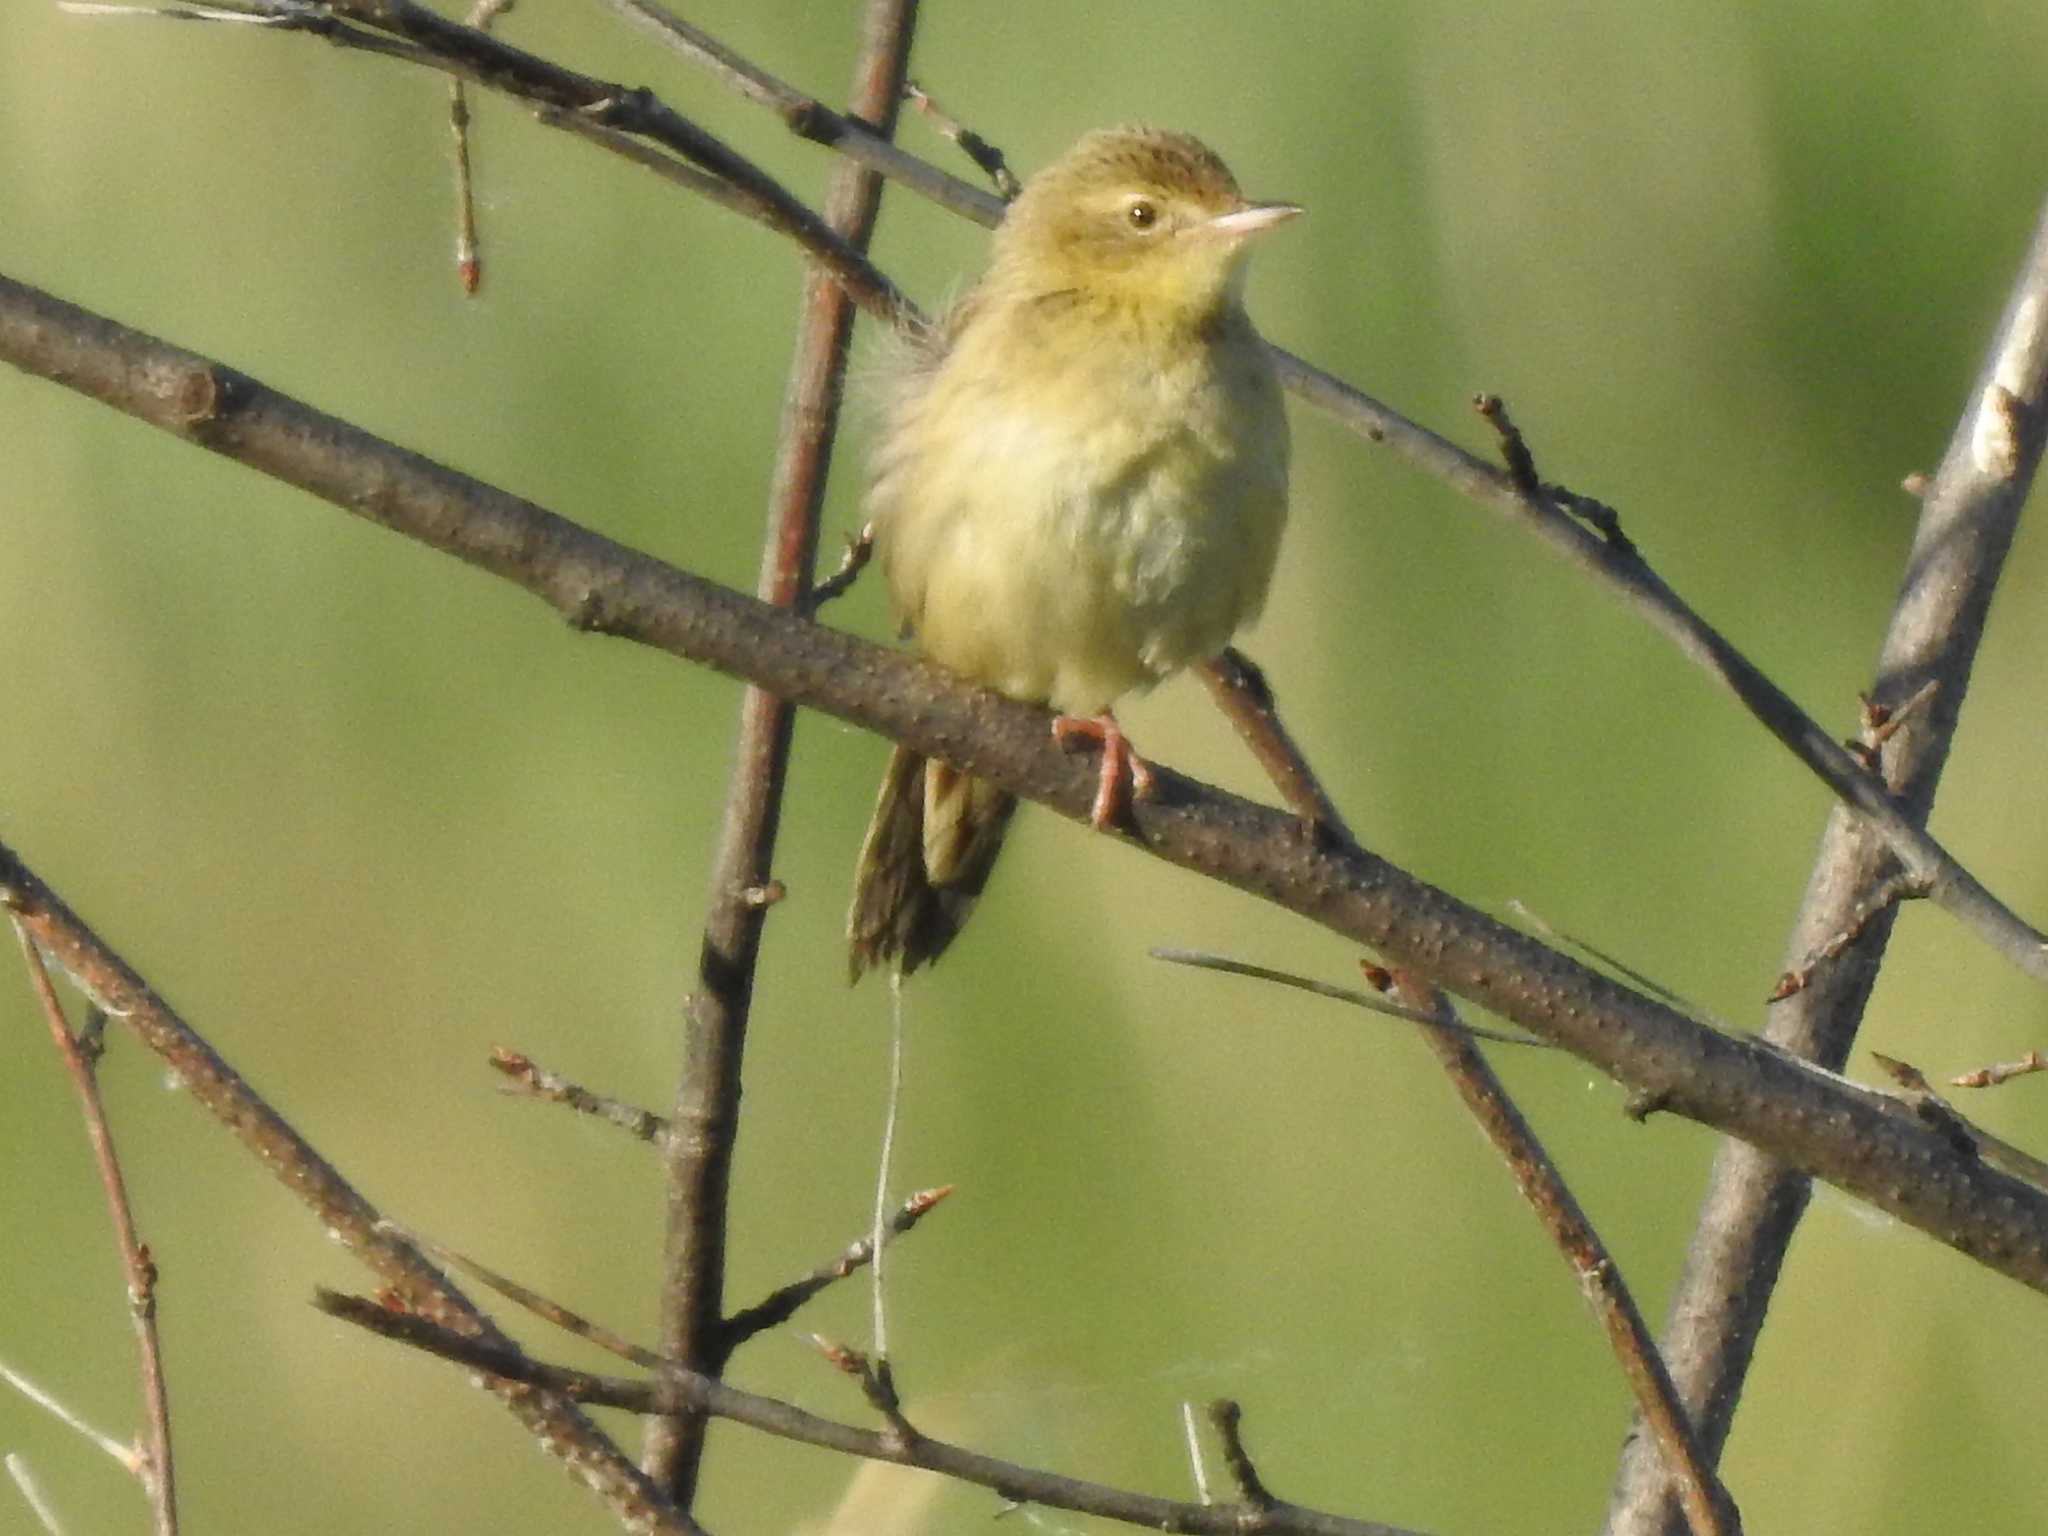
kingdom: Animalia
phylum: Chordata
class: Aves
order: Passeriformes
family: Locustellidae
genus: Locustella
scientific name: Locustella naevia
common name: Common grasshopper warbler
